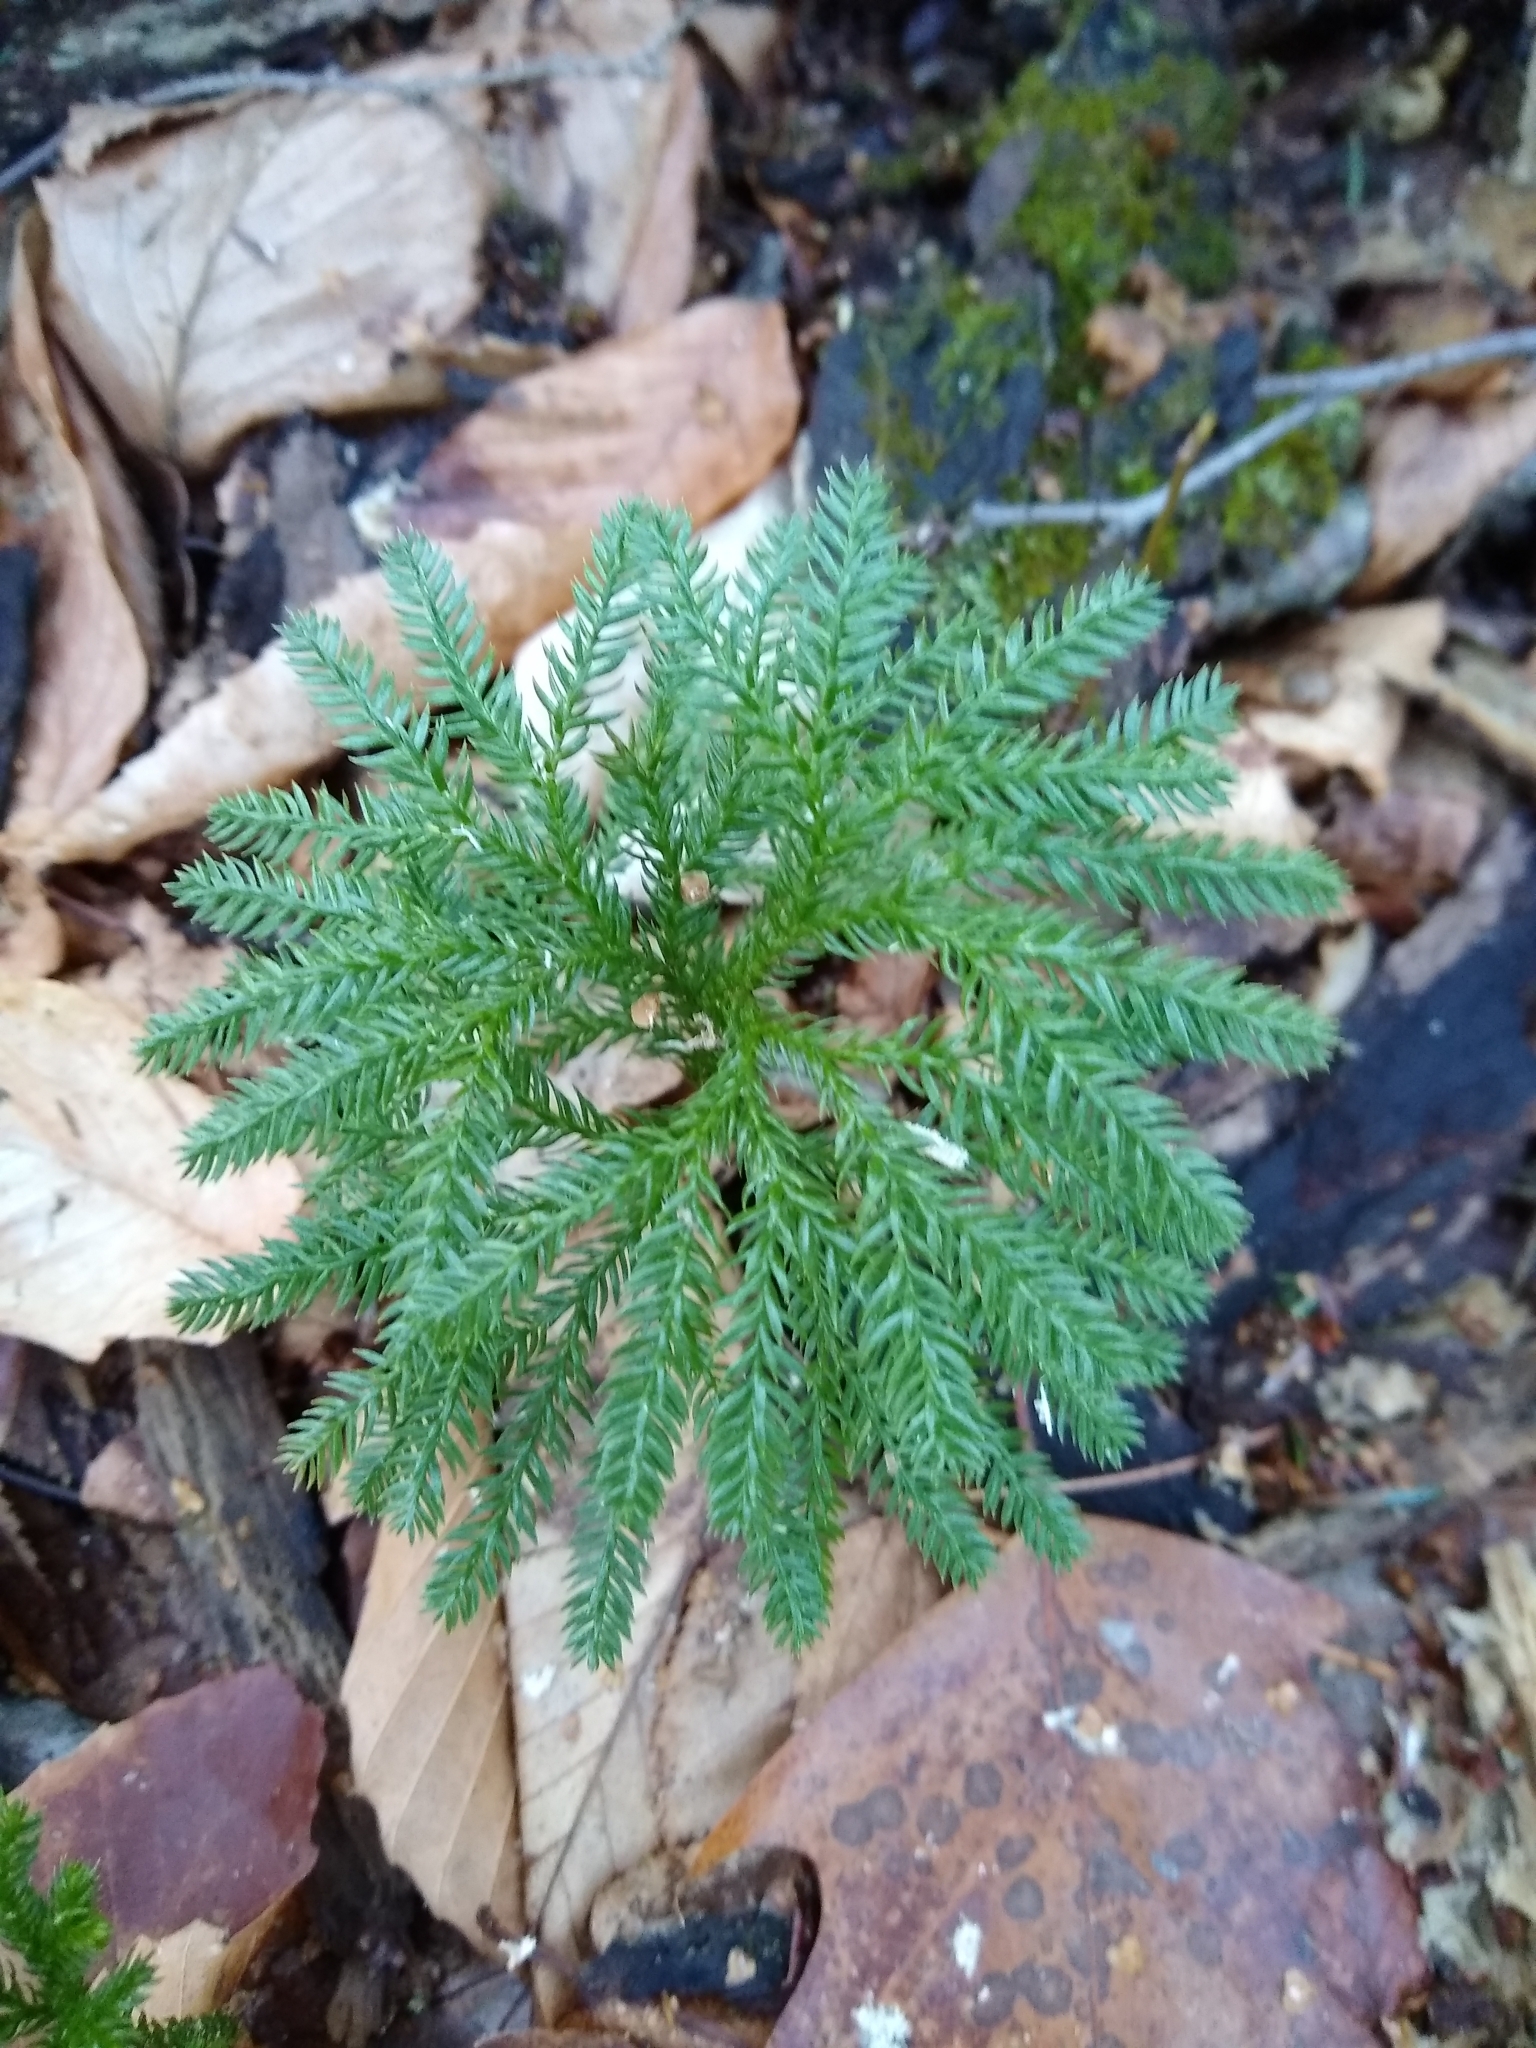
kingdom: Plantae
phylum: Tracheophyta
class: Lycopodiopsida
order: Lycopodiales
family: Lycopodiaceae
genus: Dendrolycopodium
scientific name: Dendrolycopodium obscurum
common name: Common ground-pine
